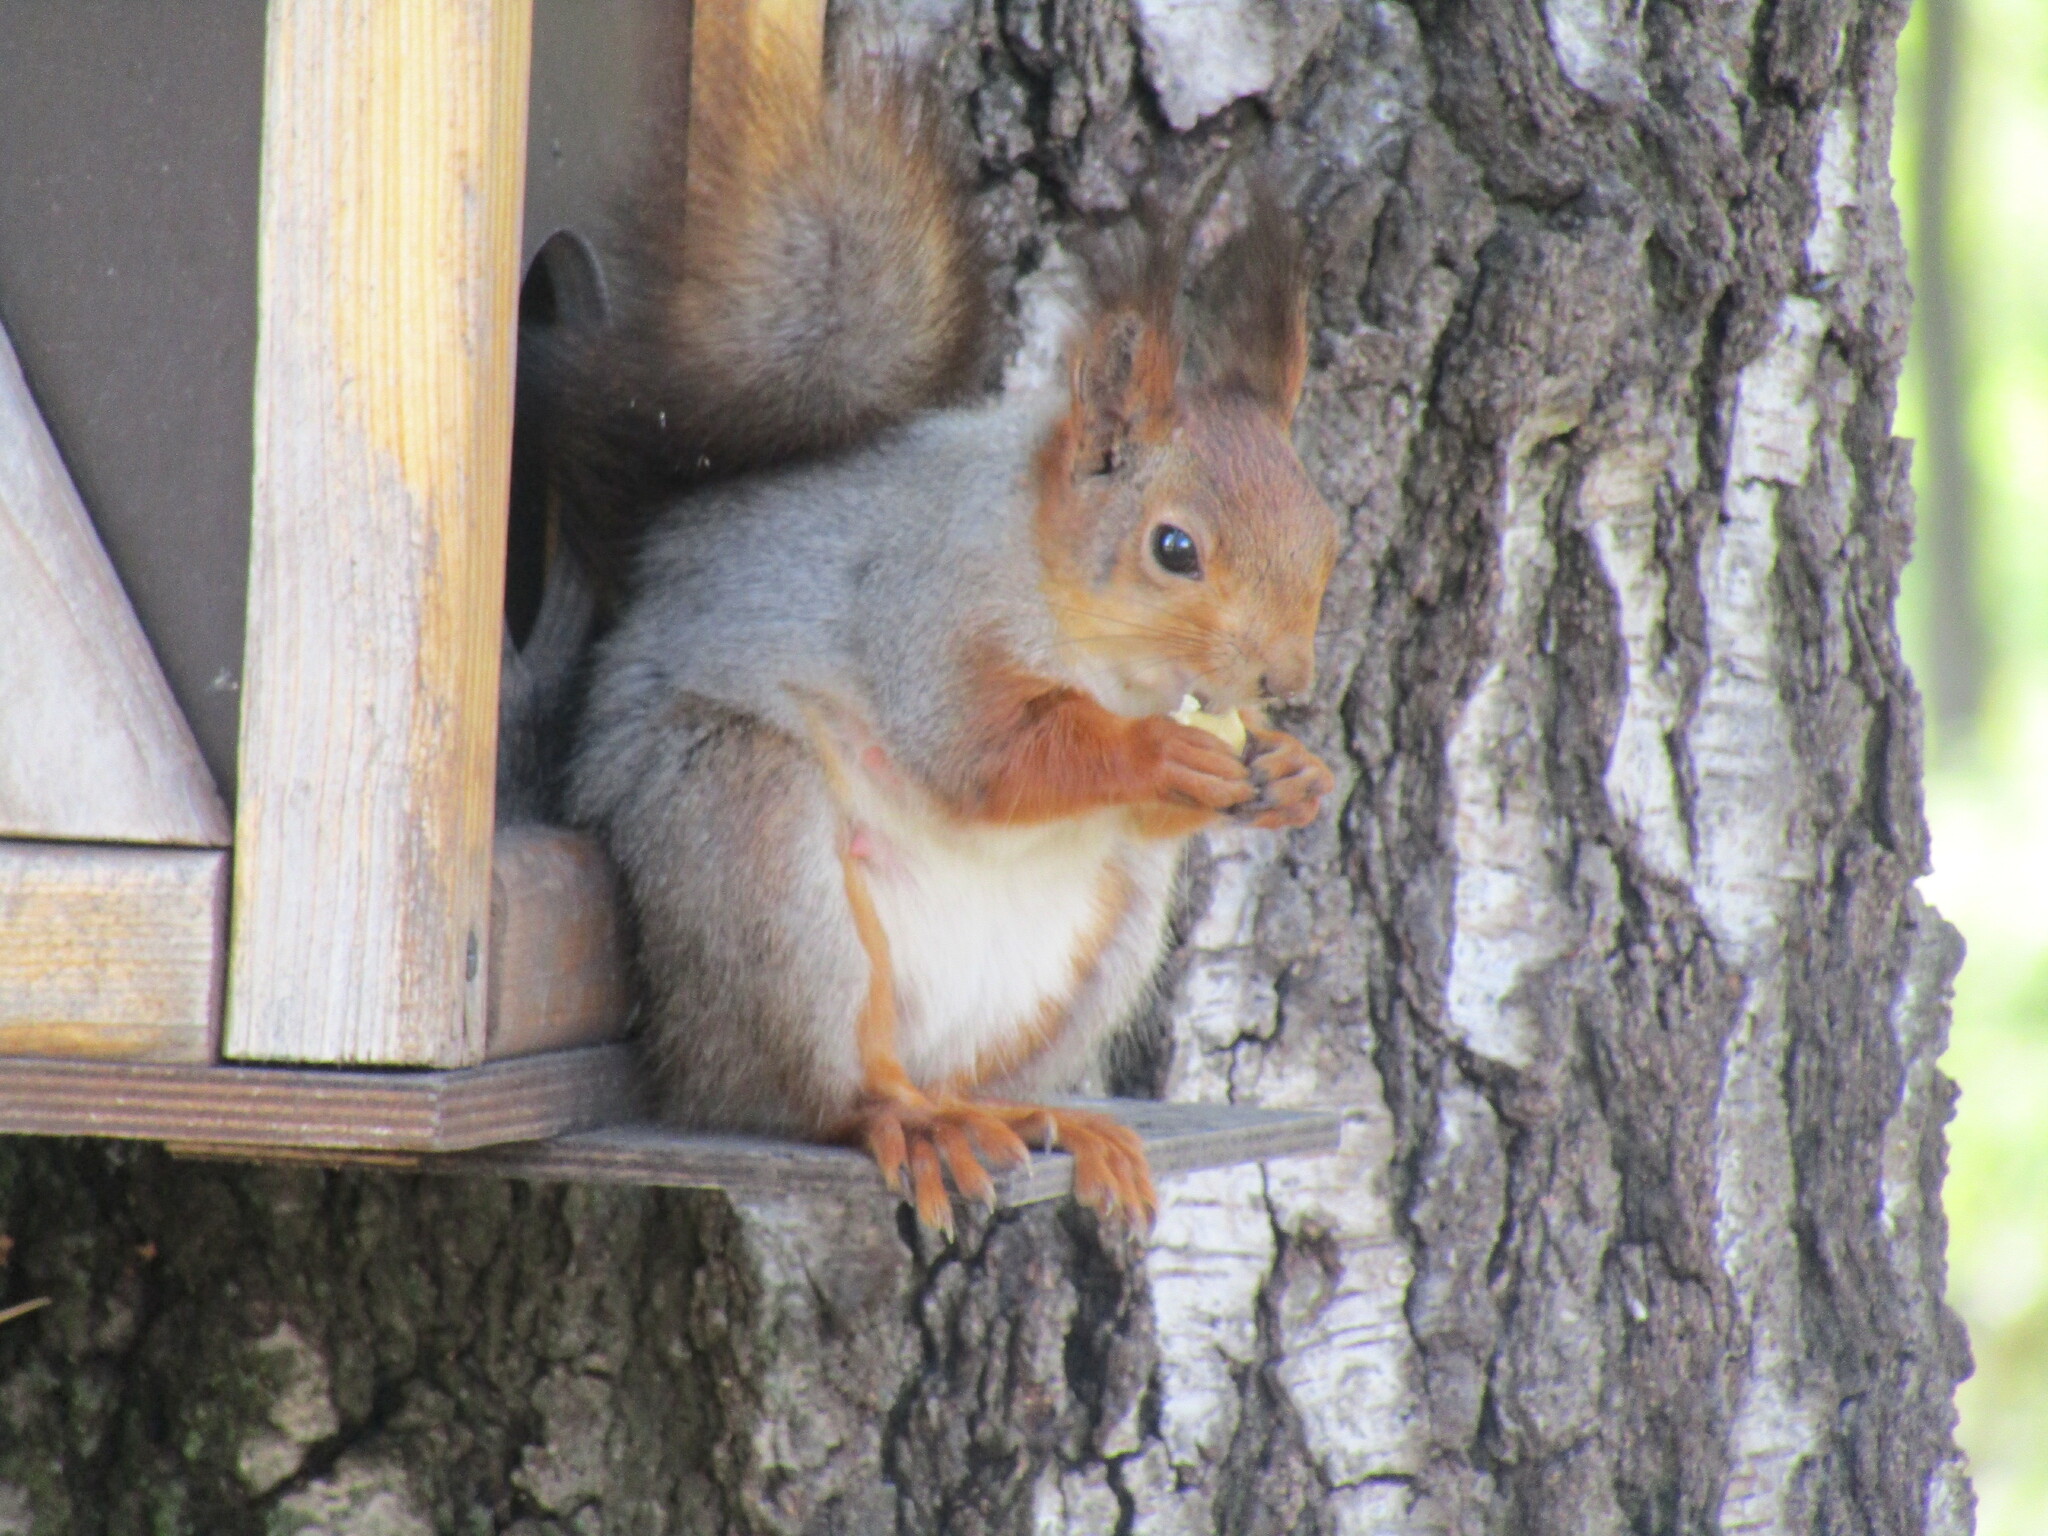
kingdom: Animalia
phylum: Chordata
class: Mammalia
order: Rodentia
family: Sciuridae
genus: Sciurus
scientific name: Sciurus vulgaris
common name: Eurasian red squirrel
